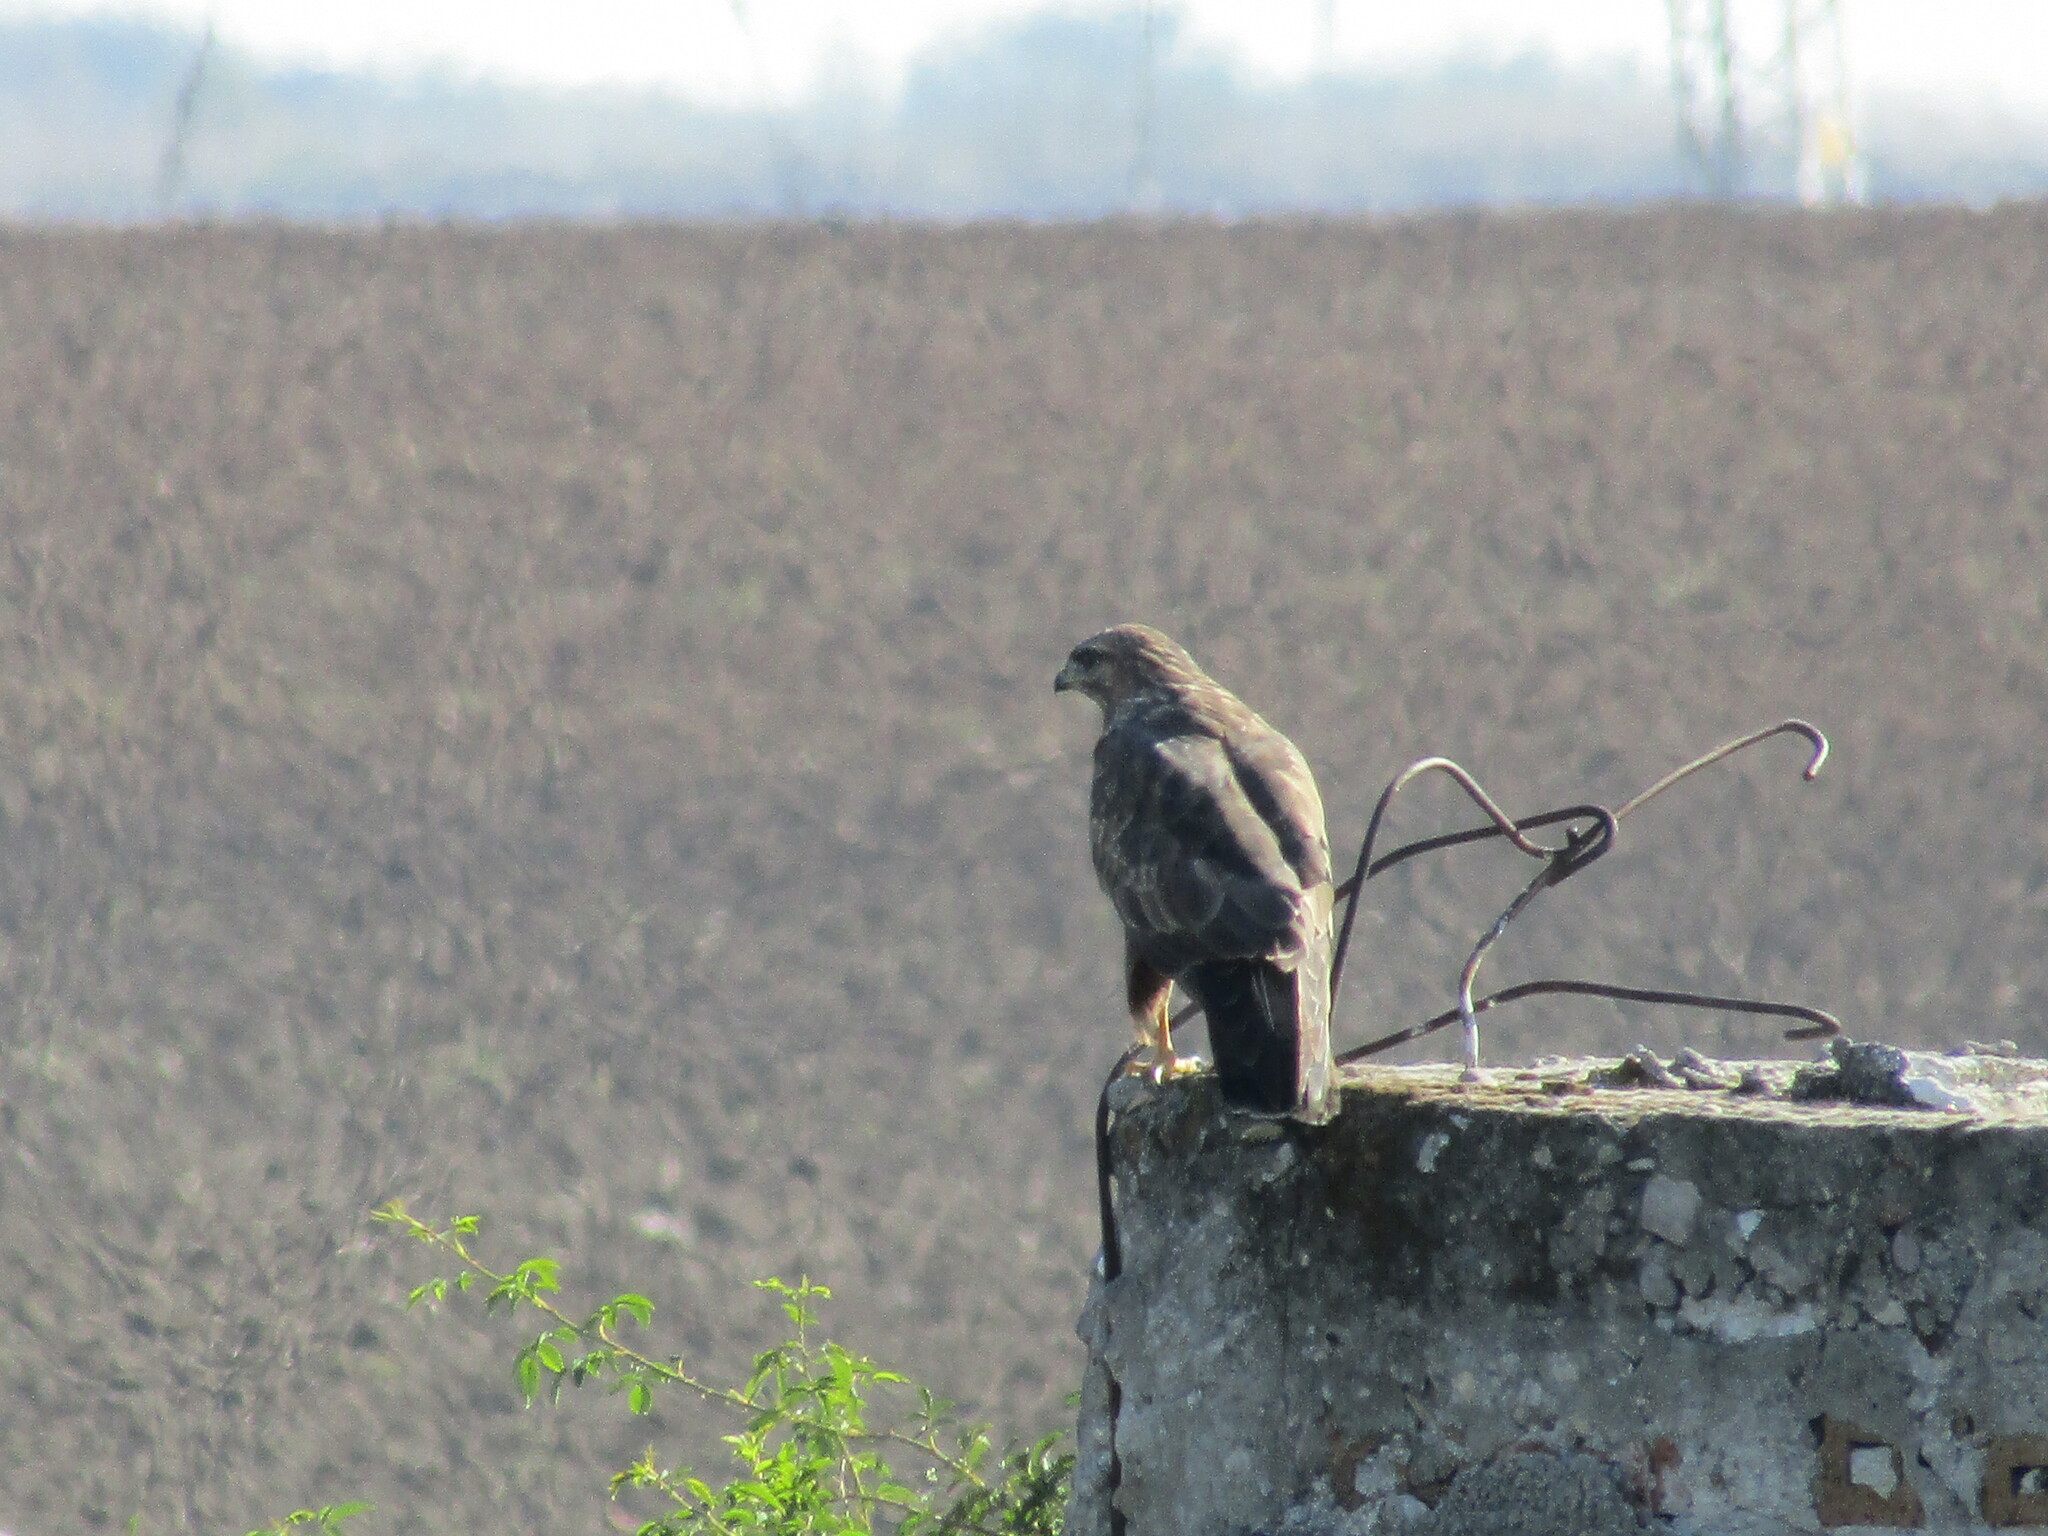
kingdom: Animalia
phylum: Chordata
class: Aves
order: Accipitriformes
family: Accipitridae
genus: Buteo
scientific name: Buteo buteo
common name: Common buzzard
